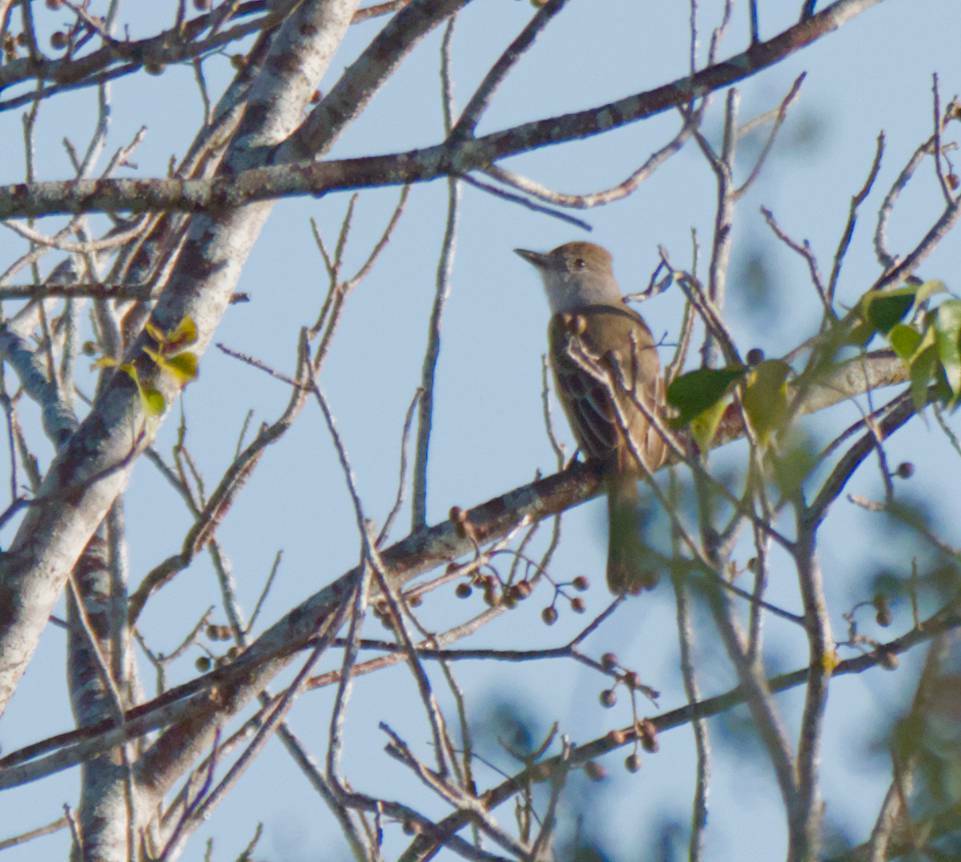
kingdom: Animalia
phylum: Chordata
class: Aves
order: Passeriformes
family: Tyrannidae
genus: Myiarchus
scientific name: Myiarchus tyrannulus
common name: Brown-crested flycatcher
